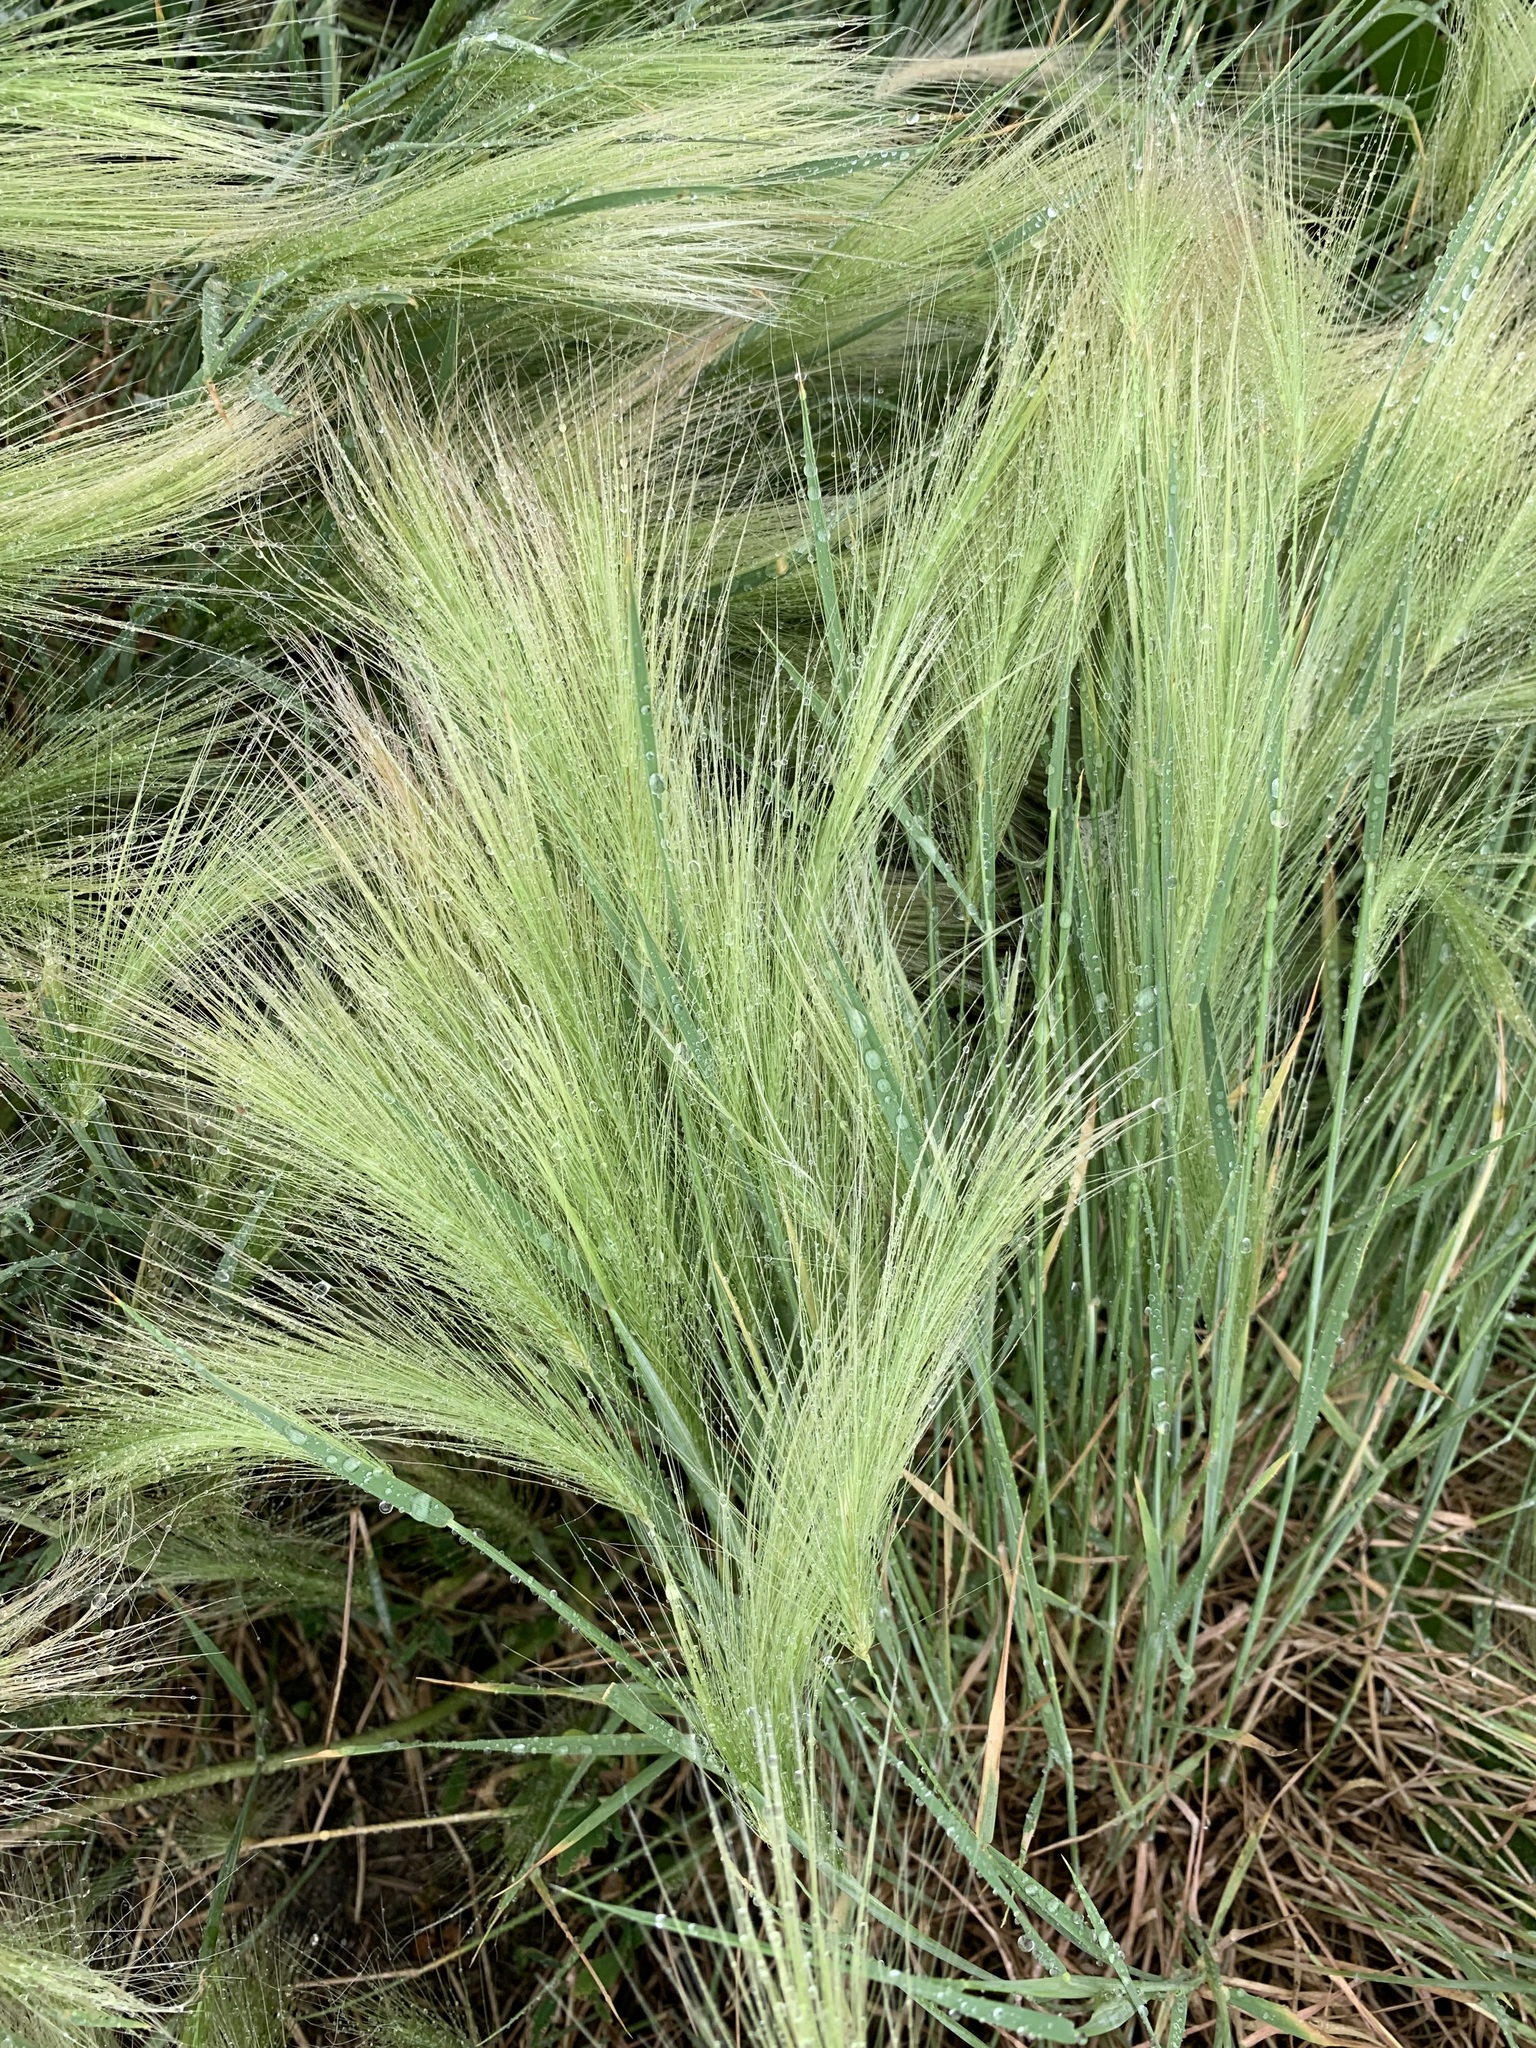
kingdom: Plantae
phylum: Tracheophyta
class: Liliopsida
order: Poales
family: Poaceae
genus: Hordeum
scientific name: Hordeum jubatum
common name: Foxtail barley
